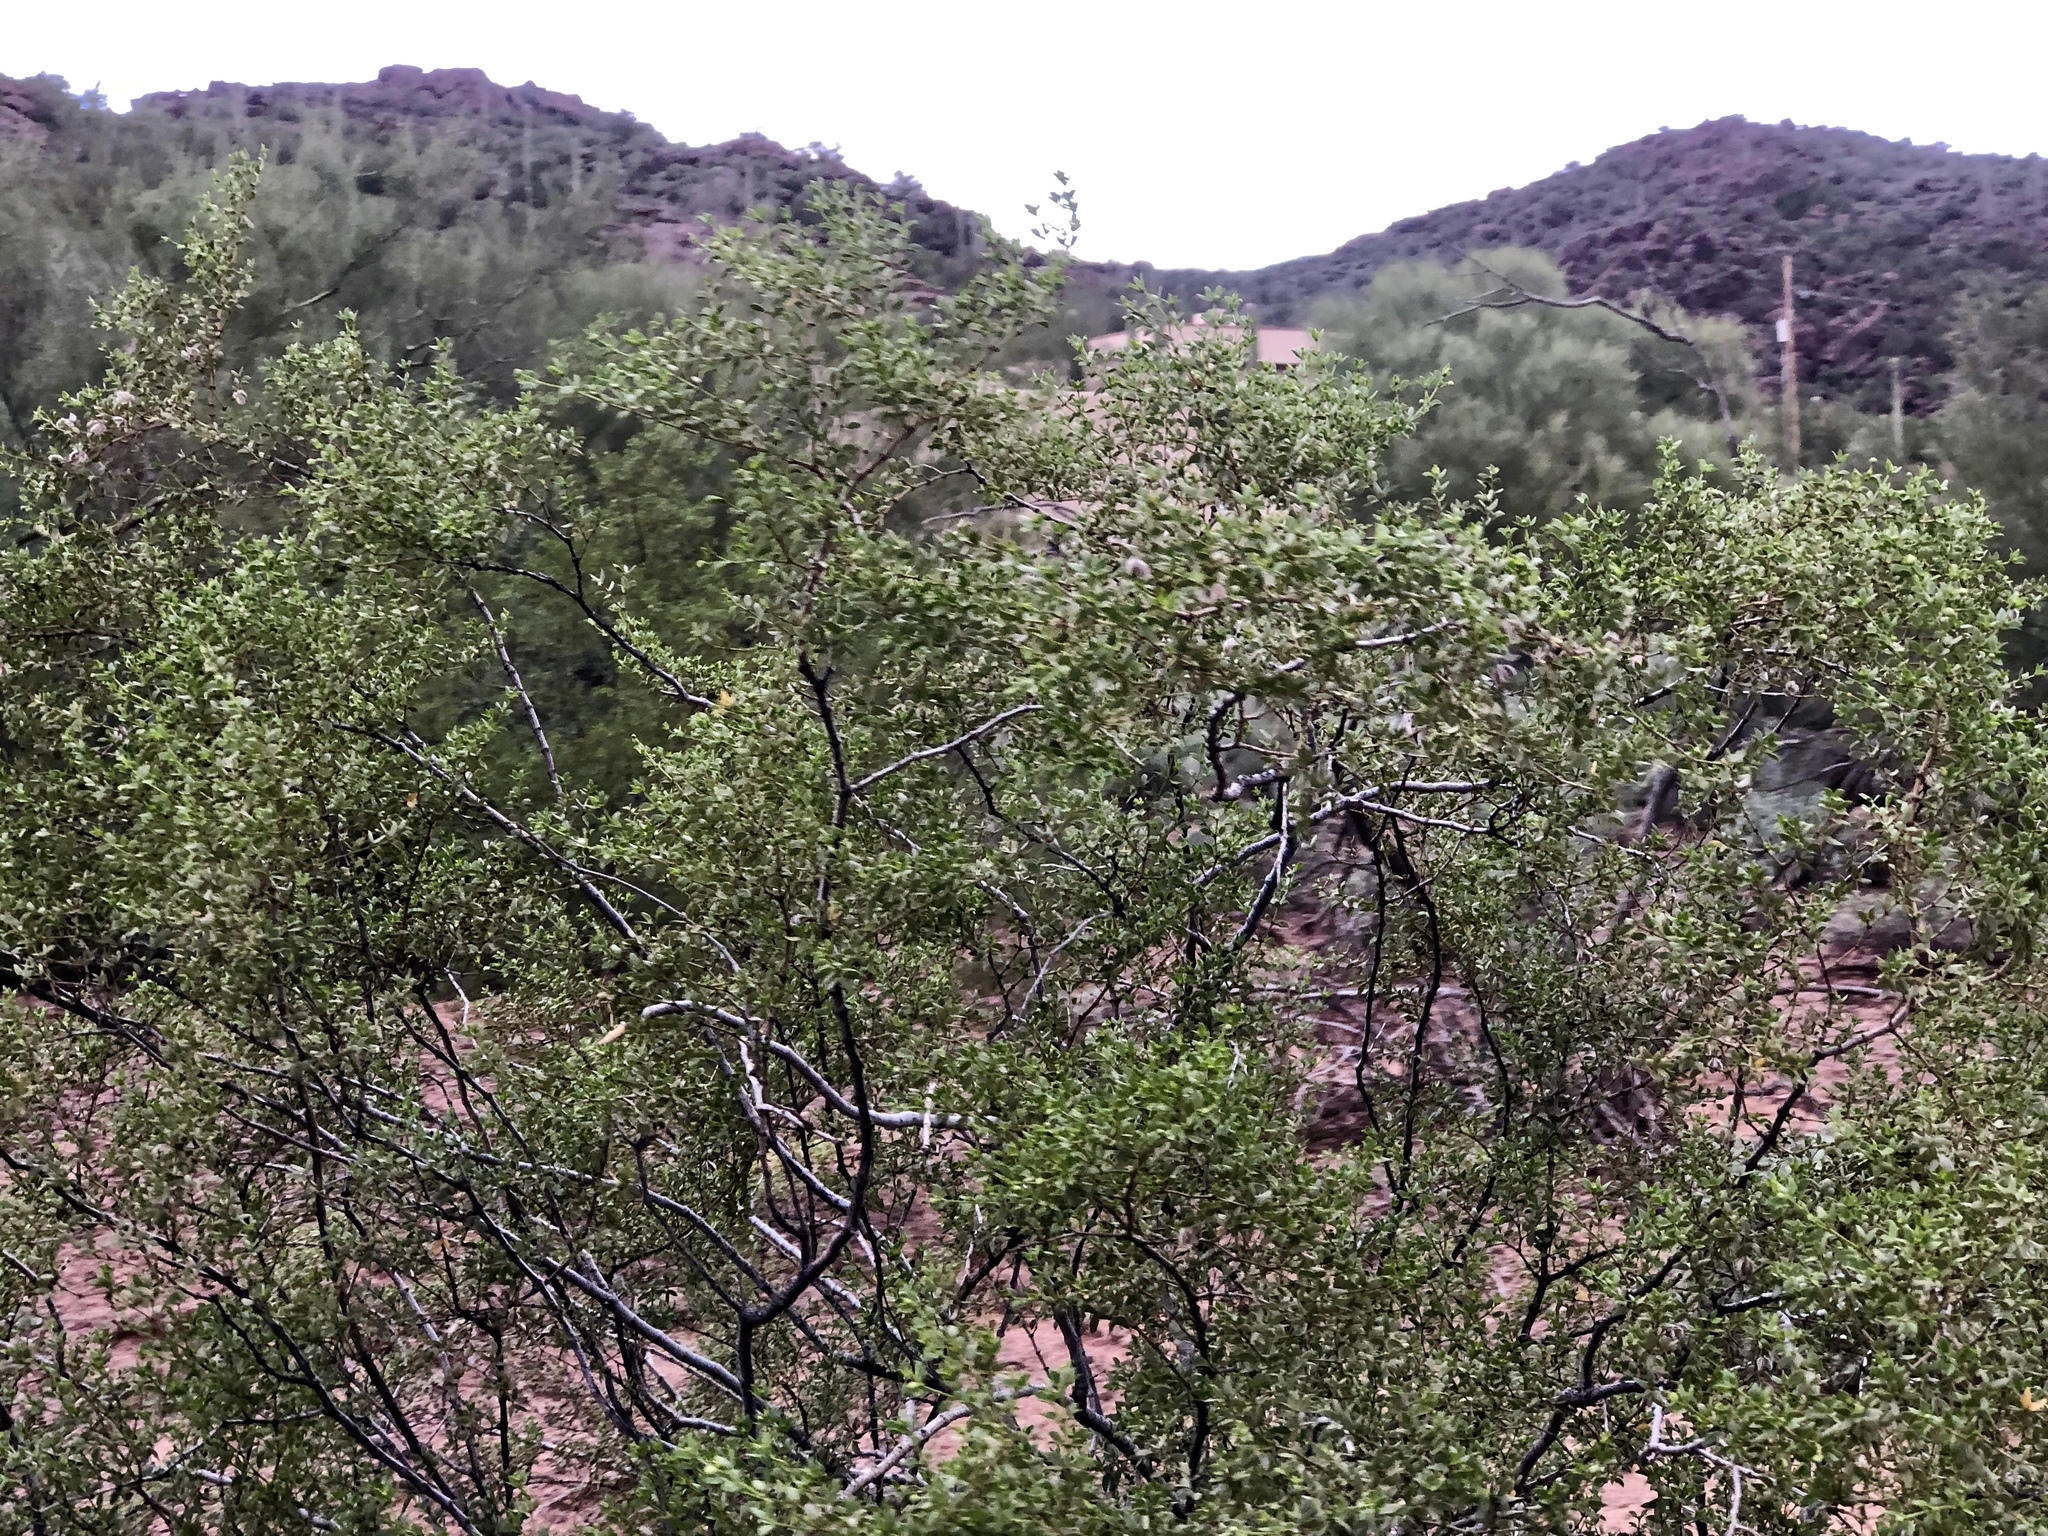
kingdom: Plantae
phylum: Tracheophyta
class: Magnoliopsida
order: Zygophyllales
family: Zygophyllaceae
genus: Larrea
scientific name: Larrea tridentata
